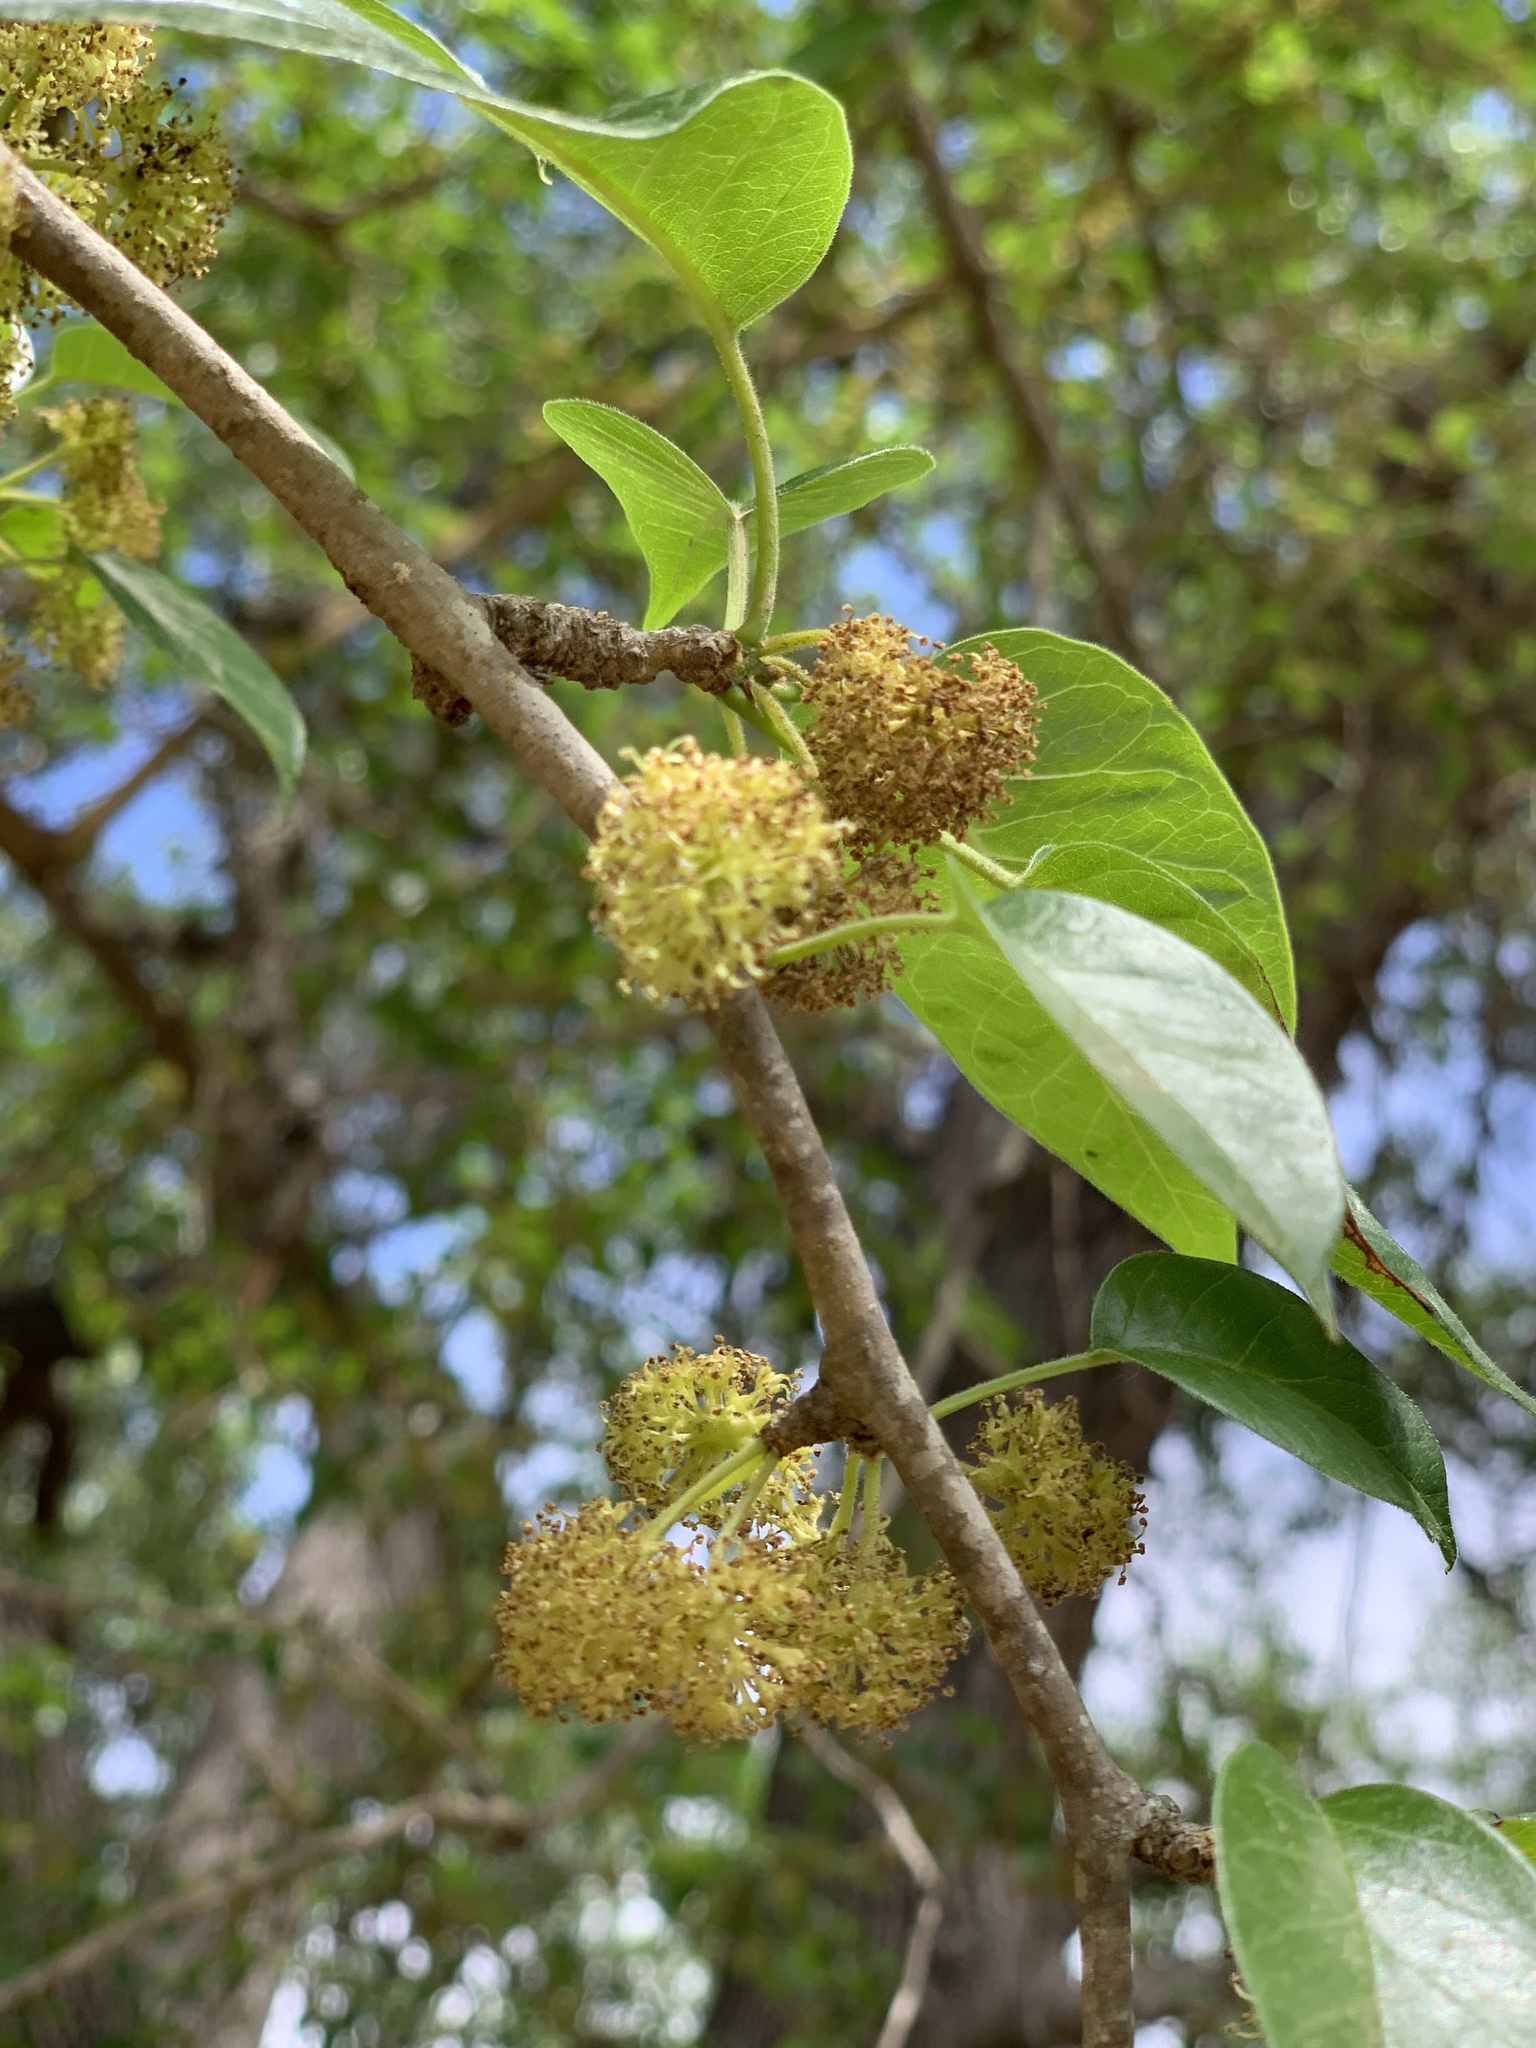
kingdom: Plantae
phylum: Tracheophyta
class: Magnoliopsida
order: Rosales
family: Moraceae
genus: Maclura
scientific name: Maclura pomifera
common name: Osage-orange
